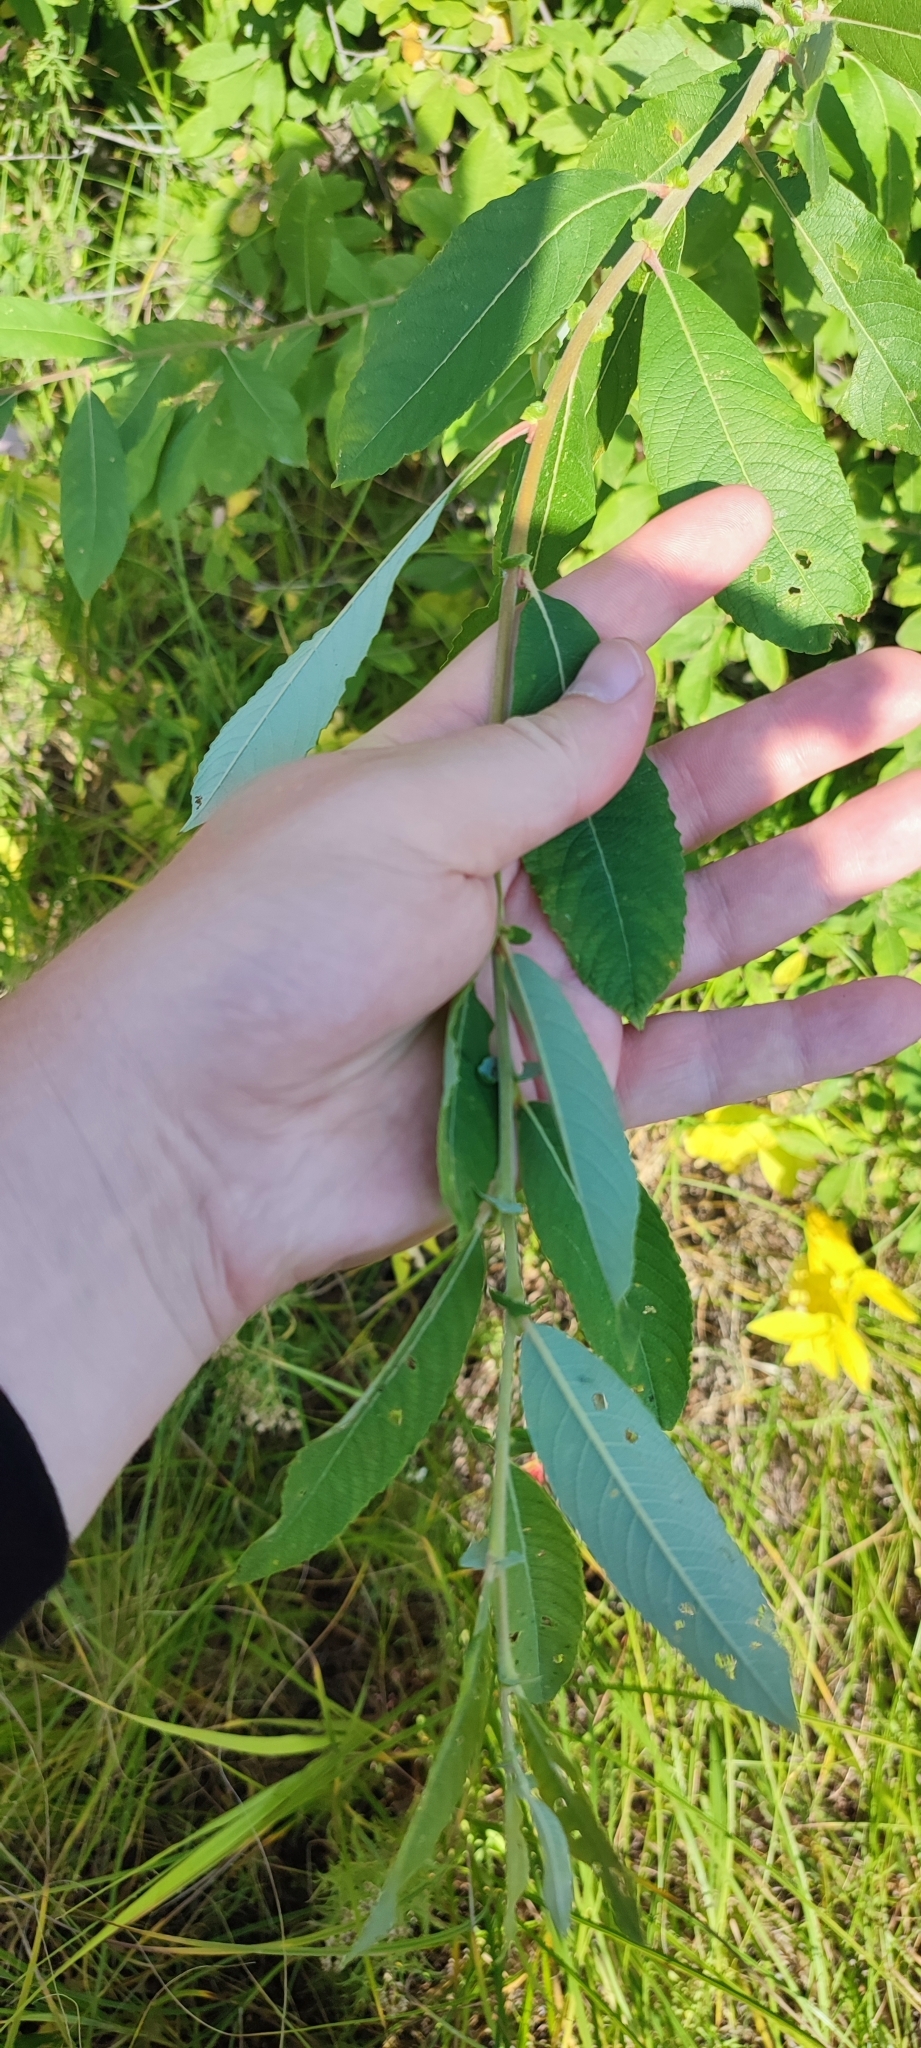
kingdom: Plantae
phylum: Tracheophyta
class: Magnoliopsida
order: Malpighiales
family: Salicaceae
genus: Salix
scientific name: Salix cinerea
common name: Common sallow
